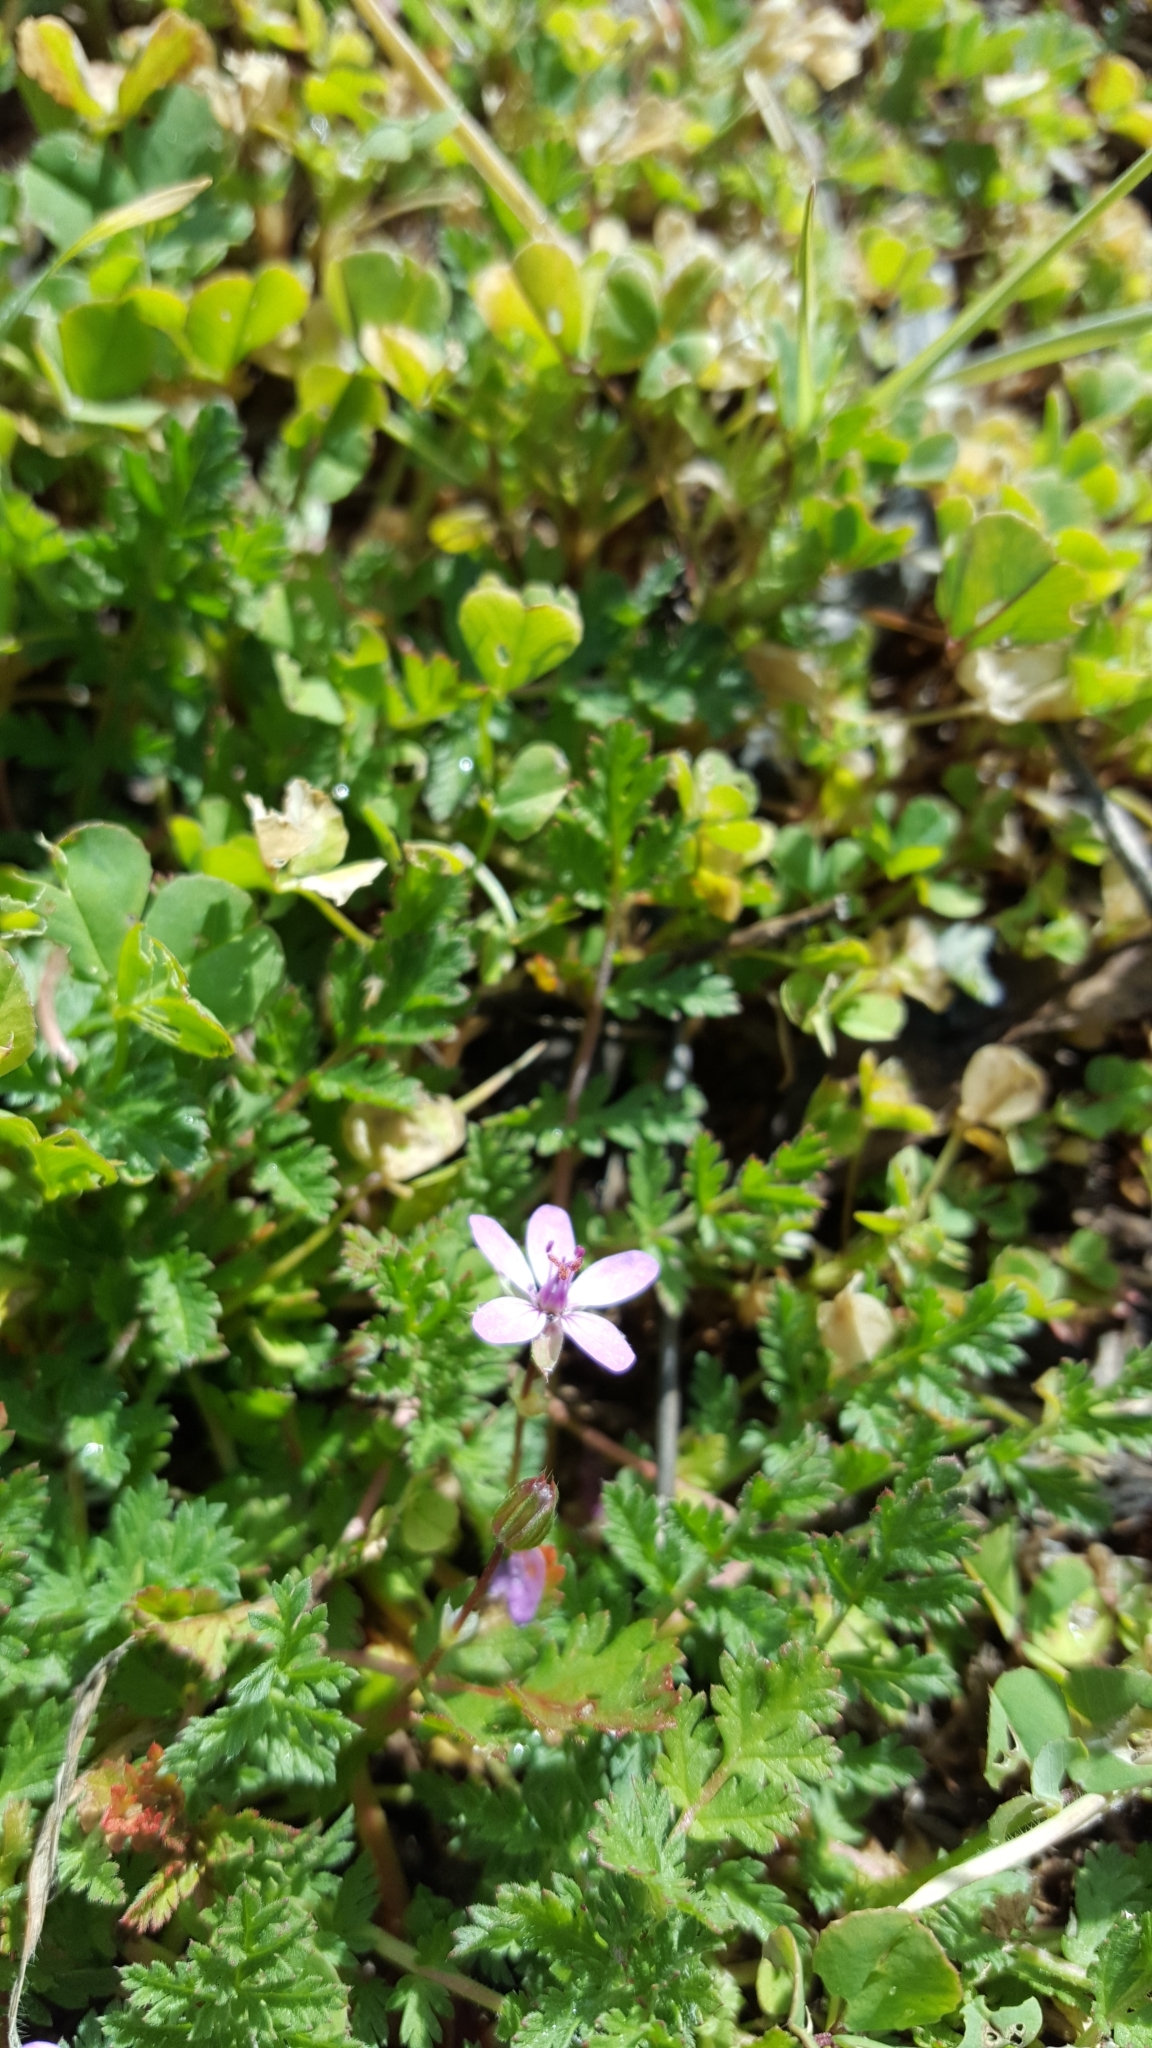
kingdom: Plantae
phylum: Tracheophyta
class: Magnoliopsida
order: Geraniales
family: Geraniaceae
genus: Erodium
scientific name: Erodium cicutarium
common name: Common stork's-bill
